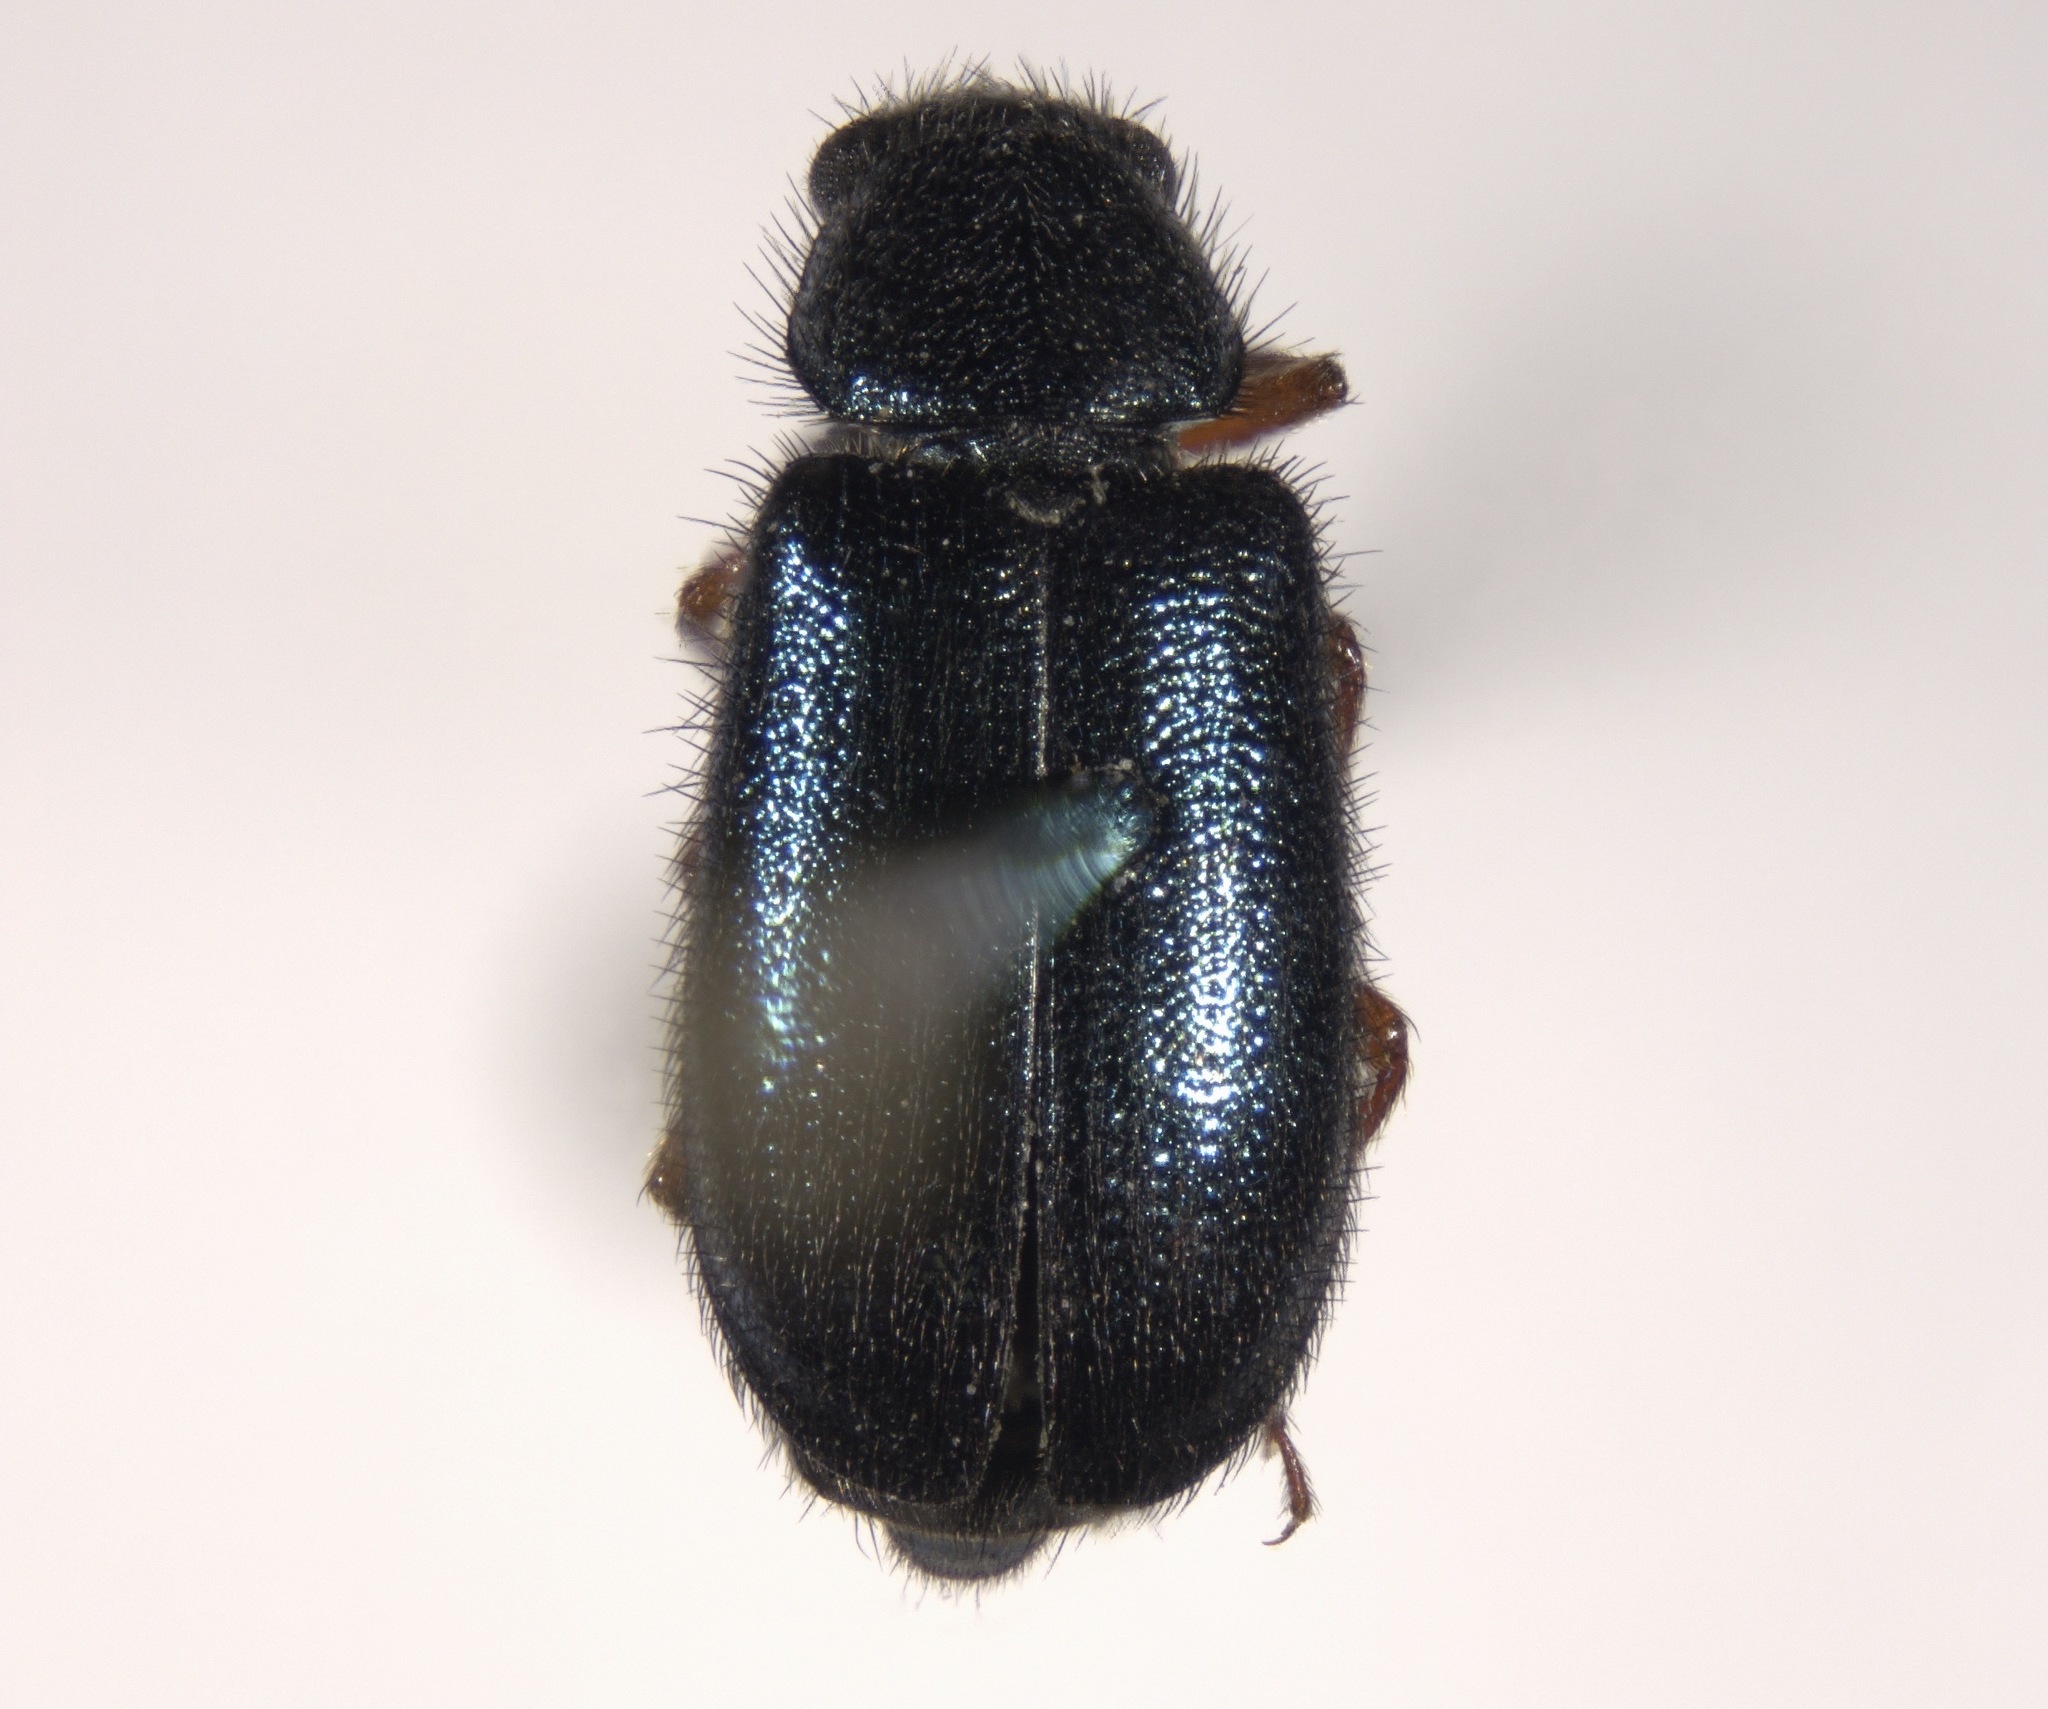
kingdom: Animalia
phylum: Arthropoda
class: Insecta
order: Coleoptera
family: Cleridae
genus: Necrobia
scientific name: Necrobia rufipes
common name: Red-legged ham beetle
